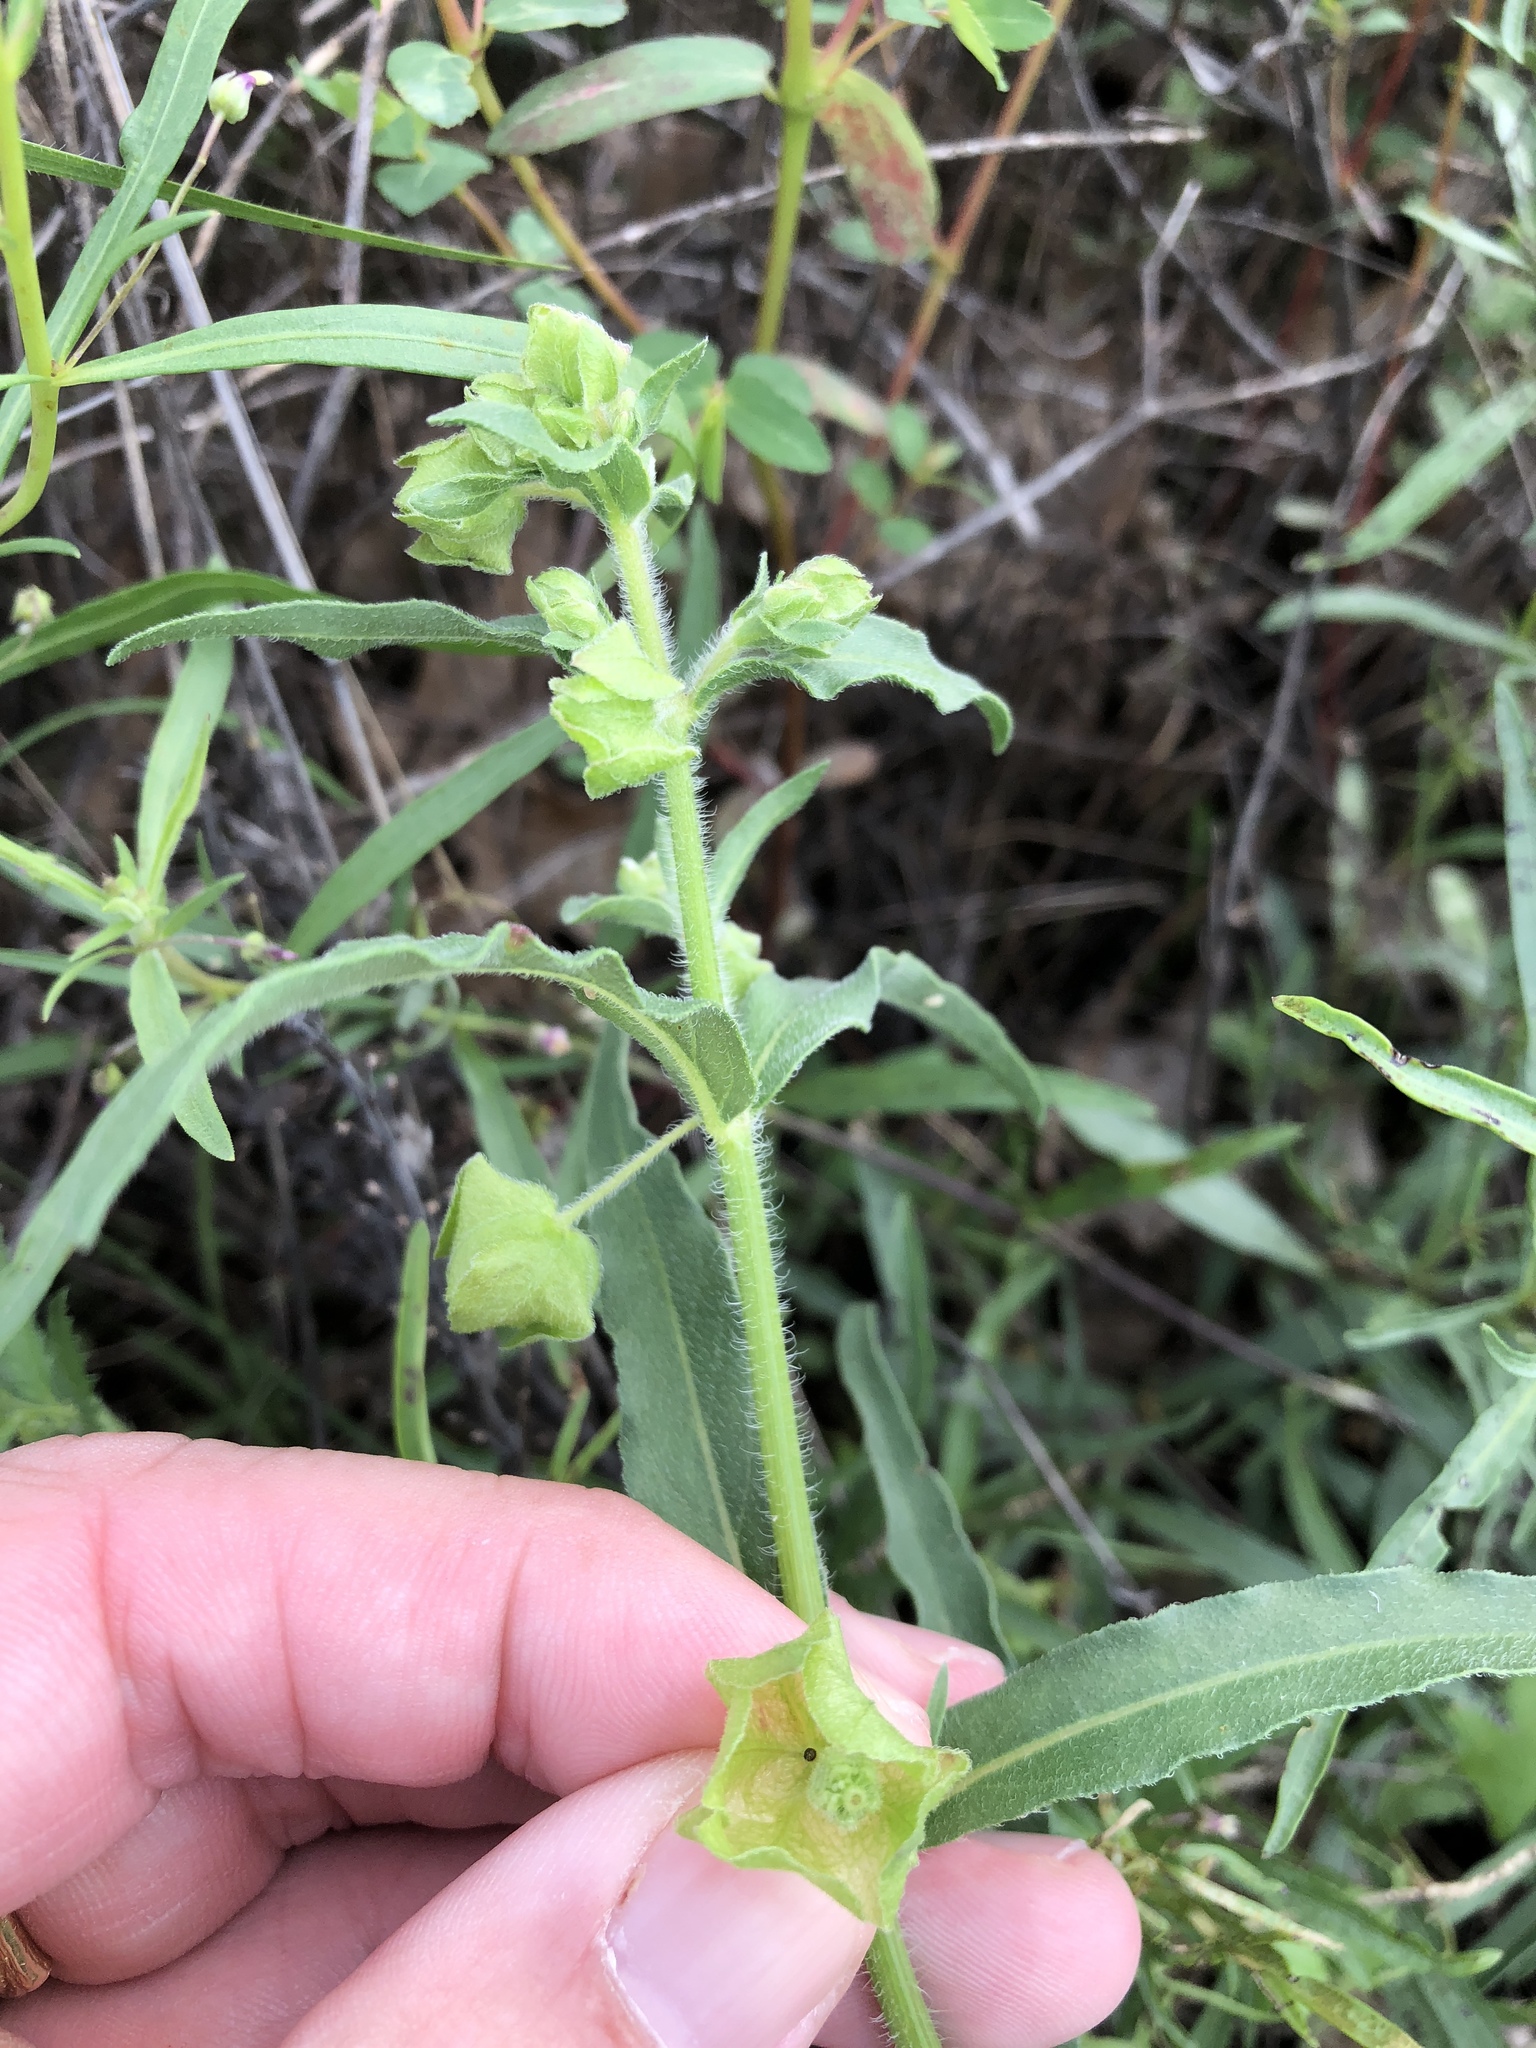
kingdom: Plantae
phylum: Tracheophyta
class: Magnoliopsida
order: Caryophyllales
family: Nyctaginaceae
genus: Mirabilis
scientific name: Mirabilis albida
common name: Hairy four-o'clock
